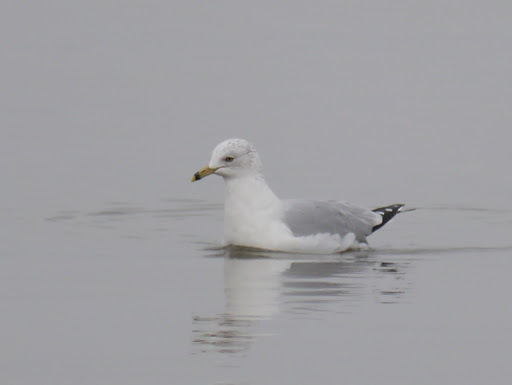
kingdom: Animalia
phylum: Chordata
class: Aves
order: Charadriiformes
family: Laridae
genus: Larus
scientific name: Larus delawarensis
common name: Ring-billed gull
